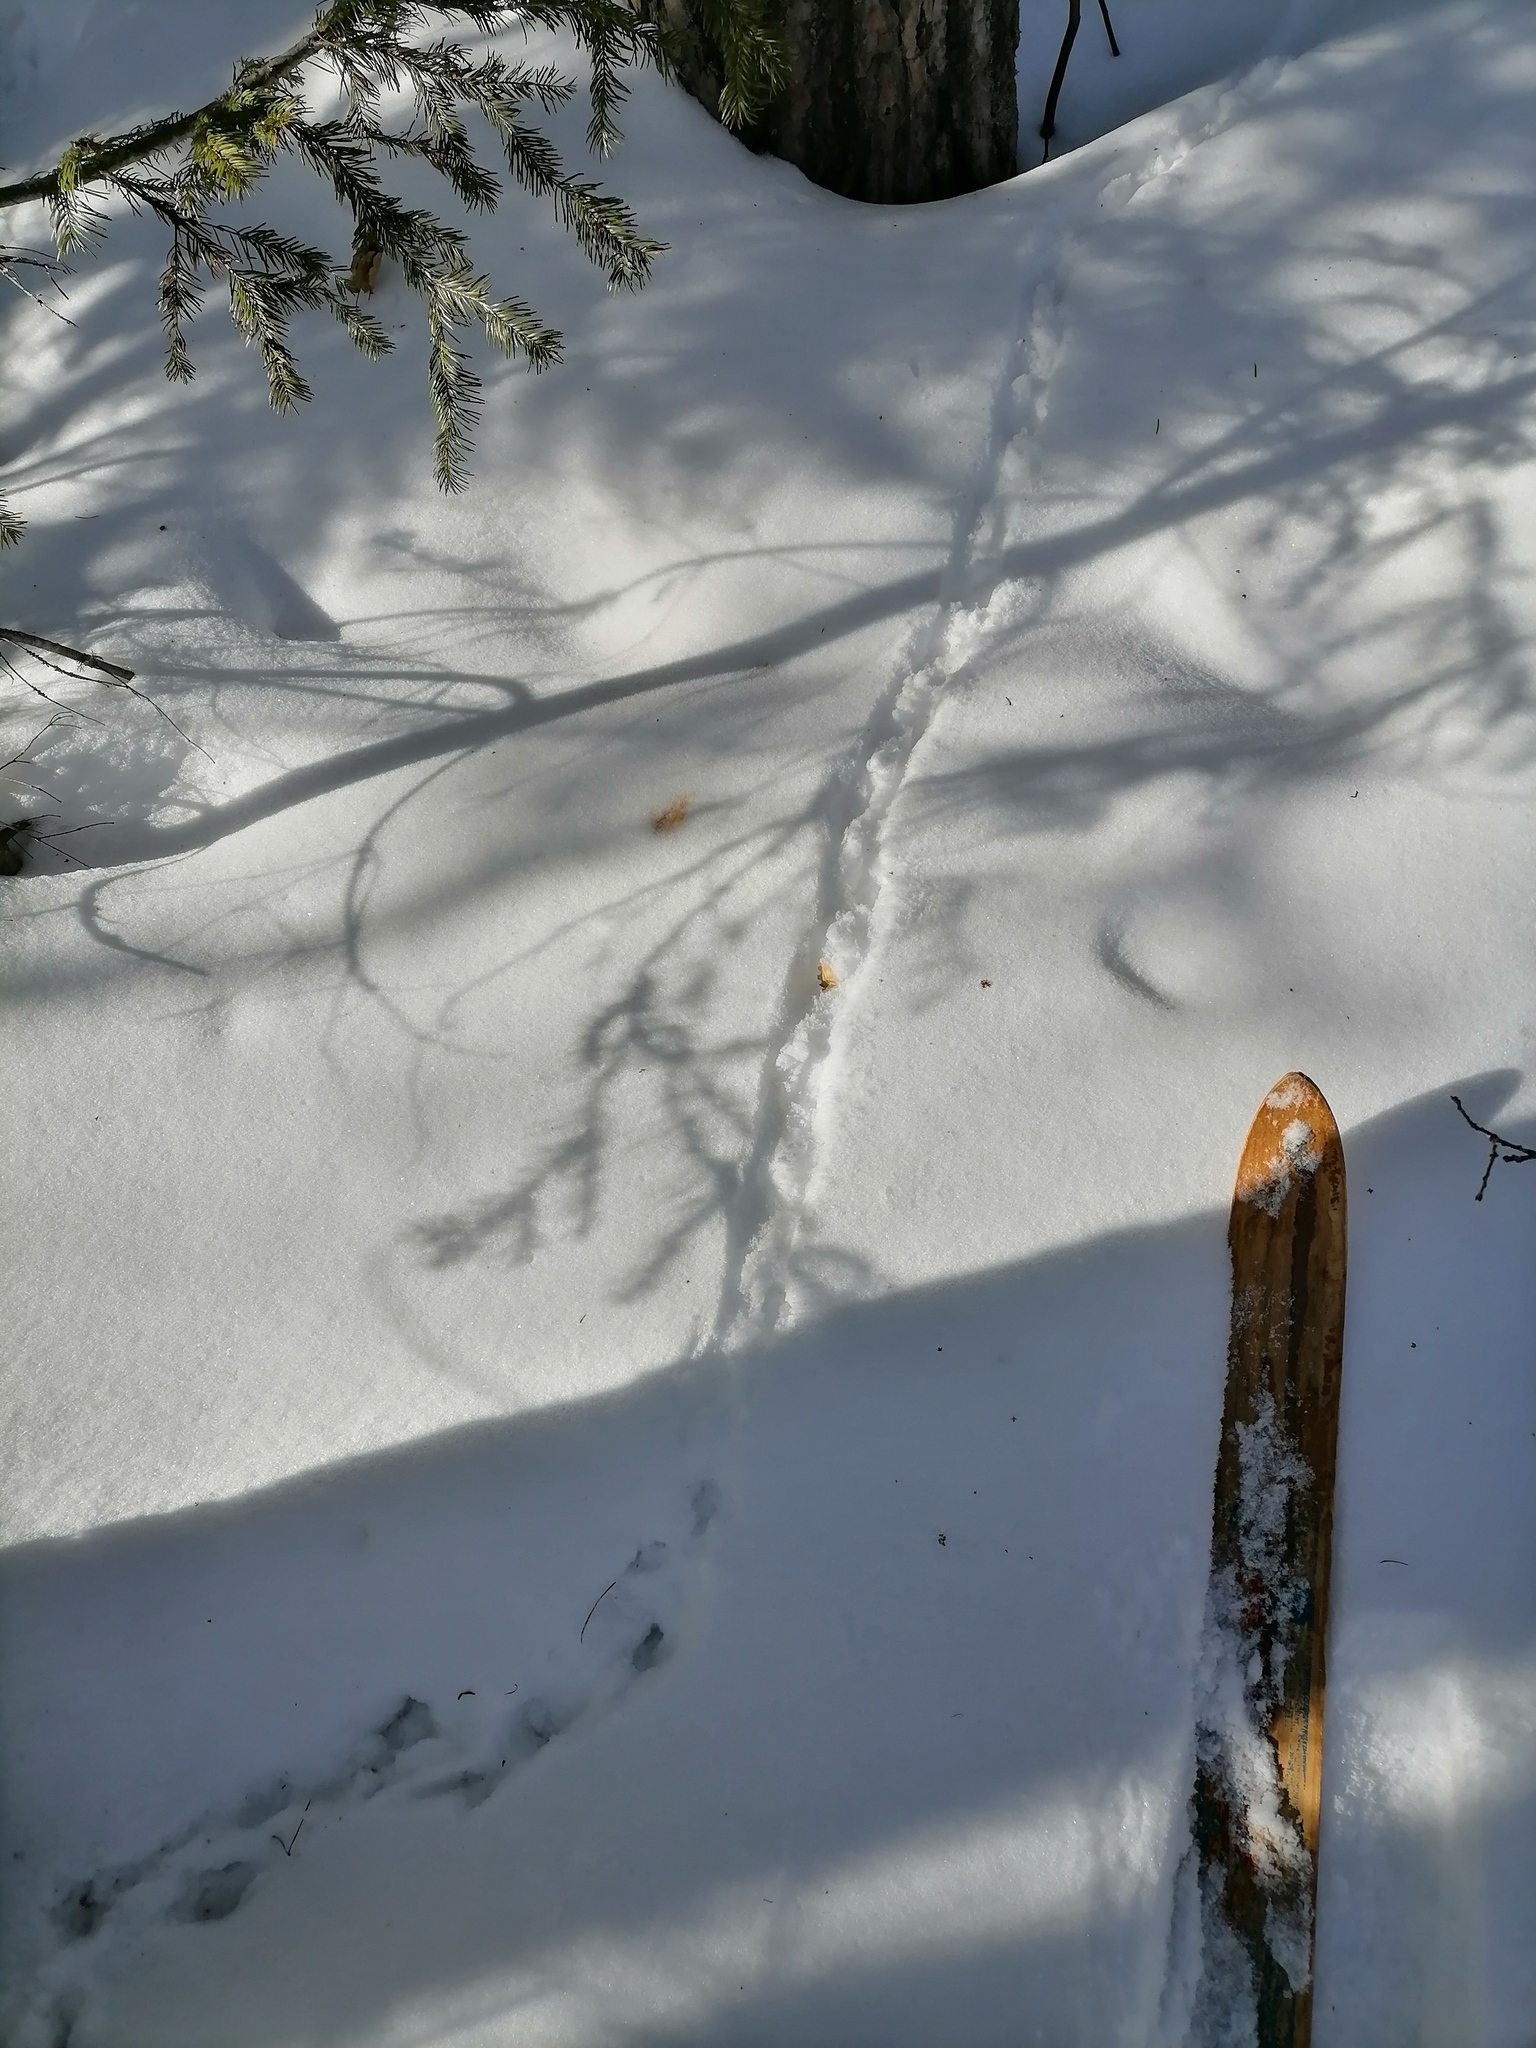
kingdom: Animalia
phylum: Chordata
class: Aves
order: Galliformes
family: Phasianidae
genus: Tetrastes
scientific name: Tetrastes bonasia
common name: Hazel grouse
